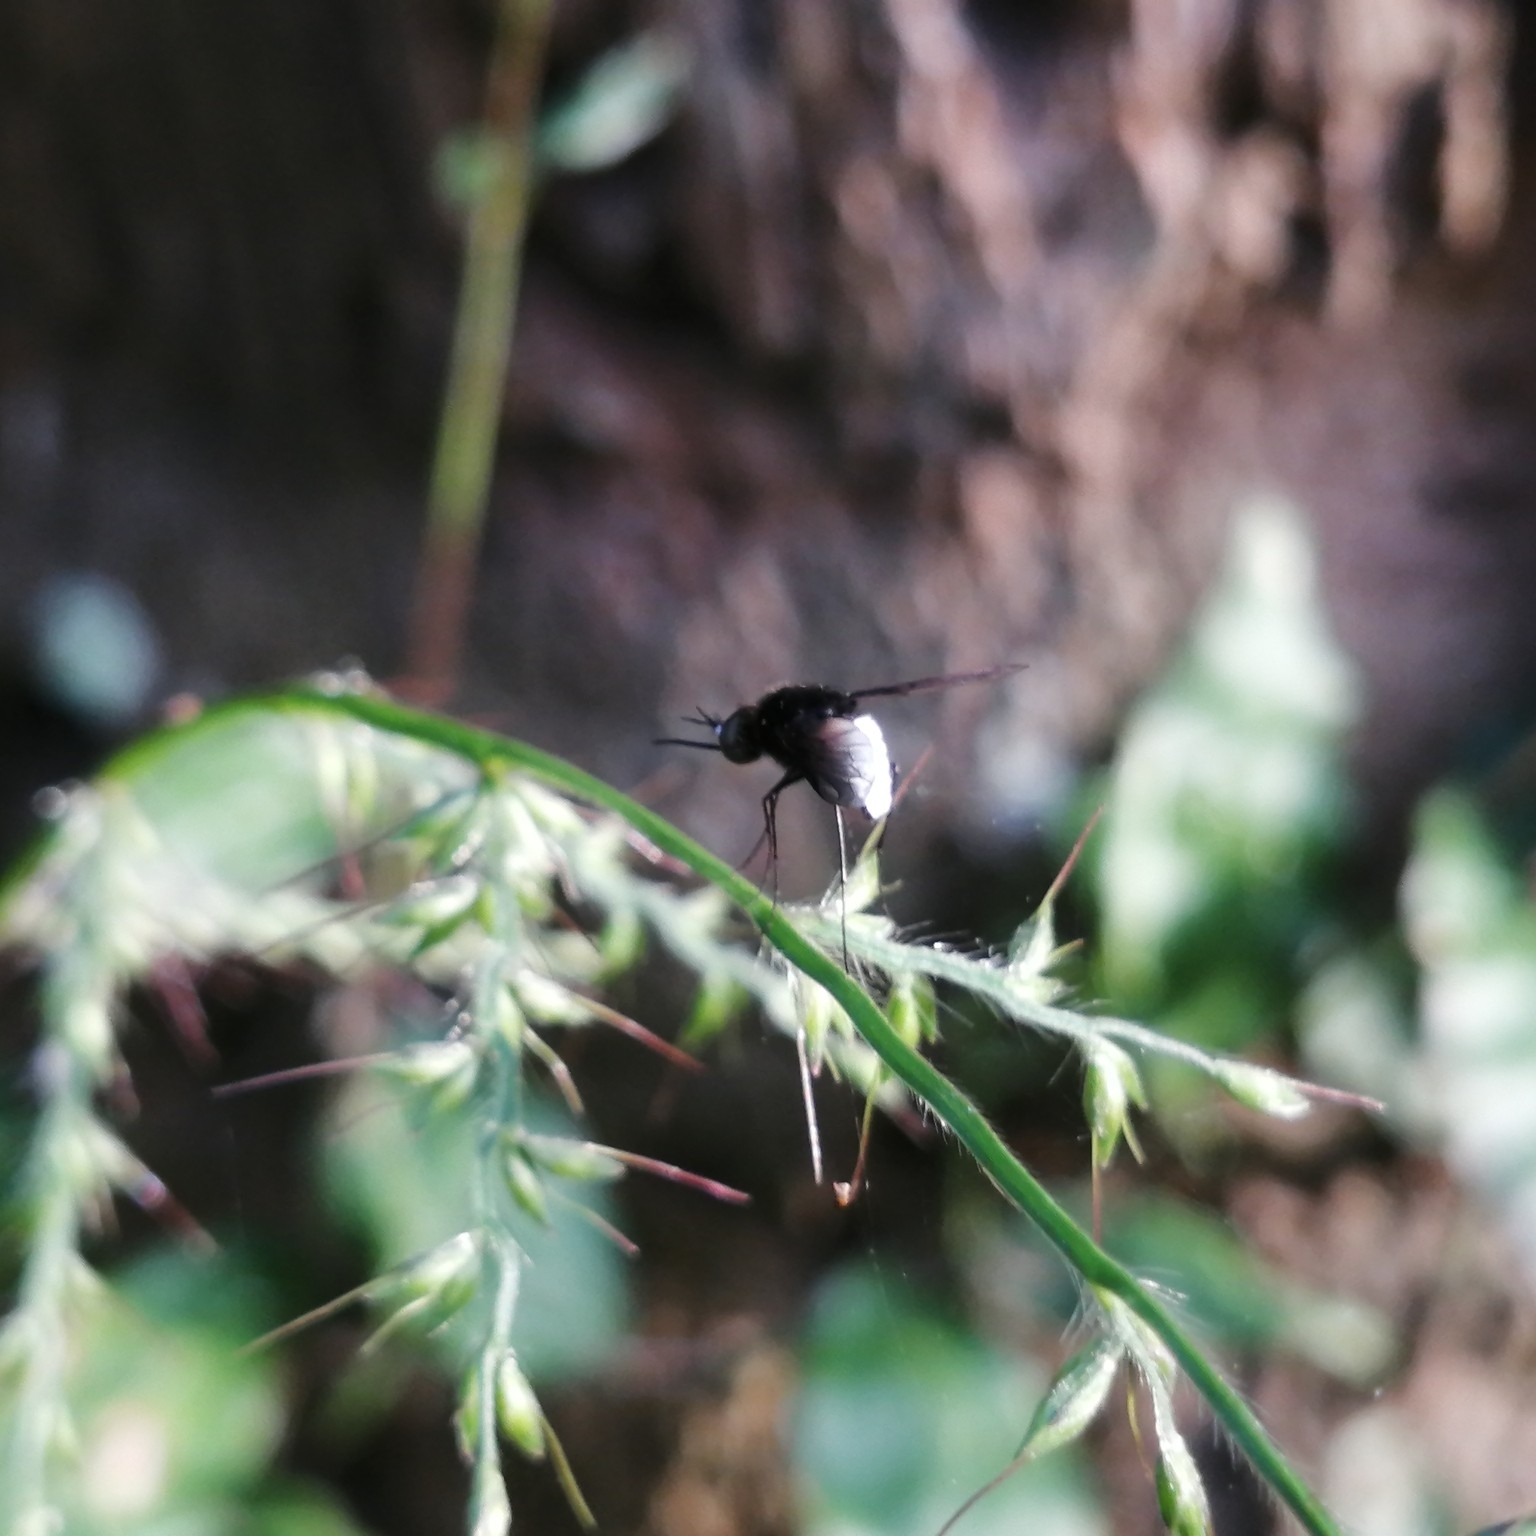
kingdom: Animalia
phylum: Arthropoda
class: Insecta
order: Diptera
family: Bombyliidae
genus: Euchariomyia
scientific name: Euchariomyia dives
